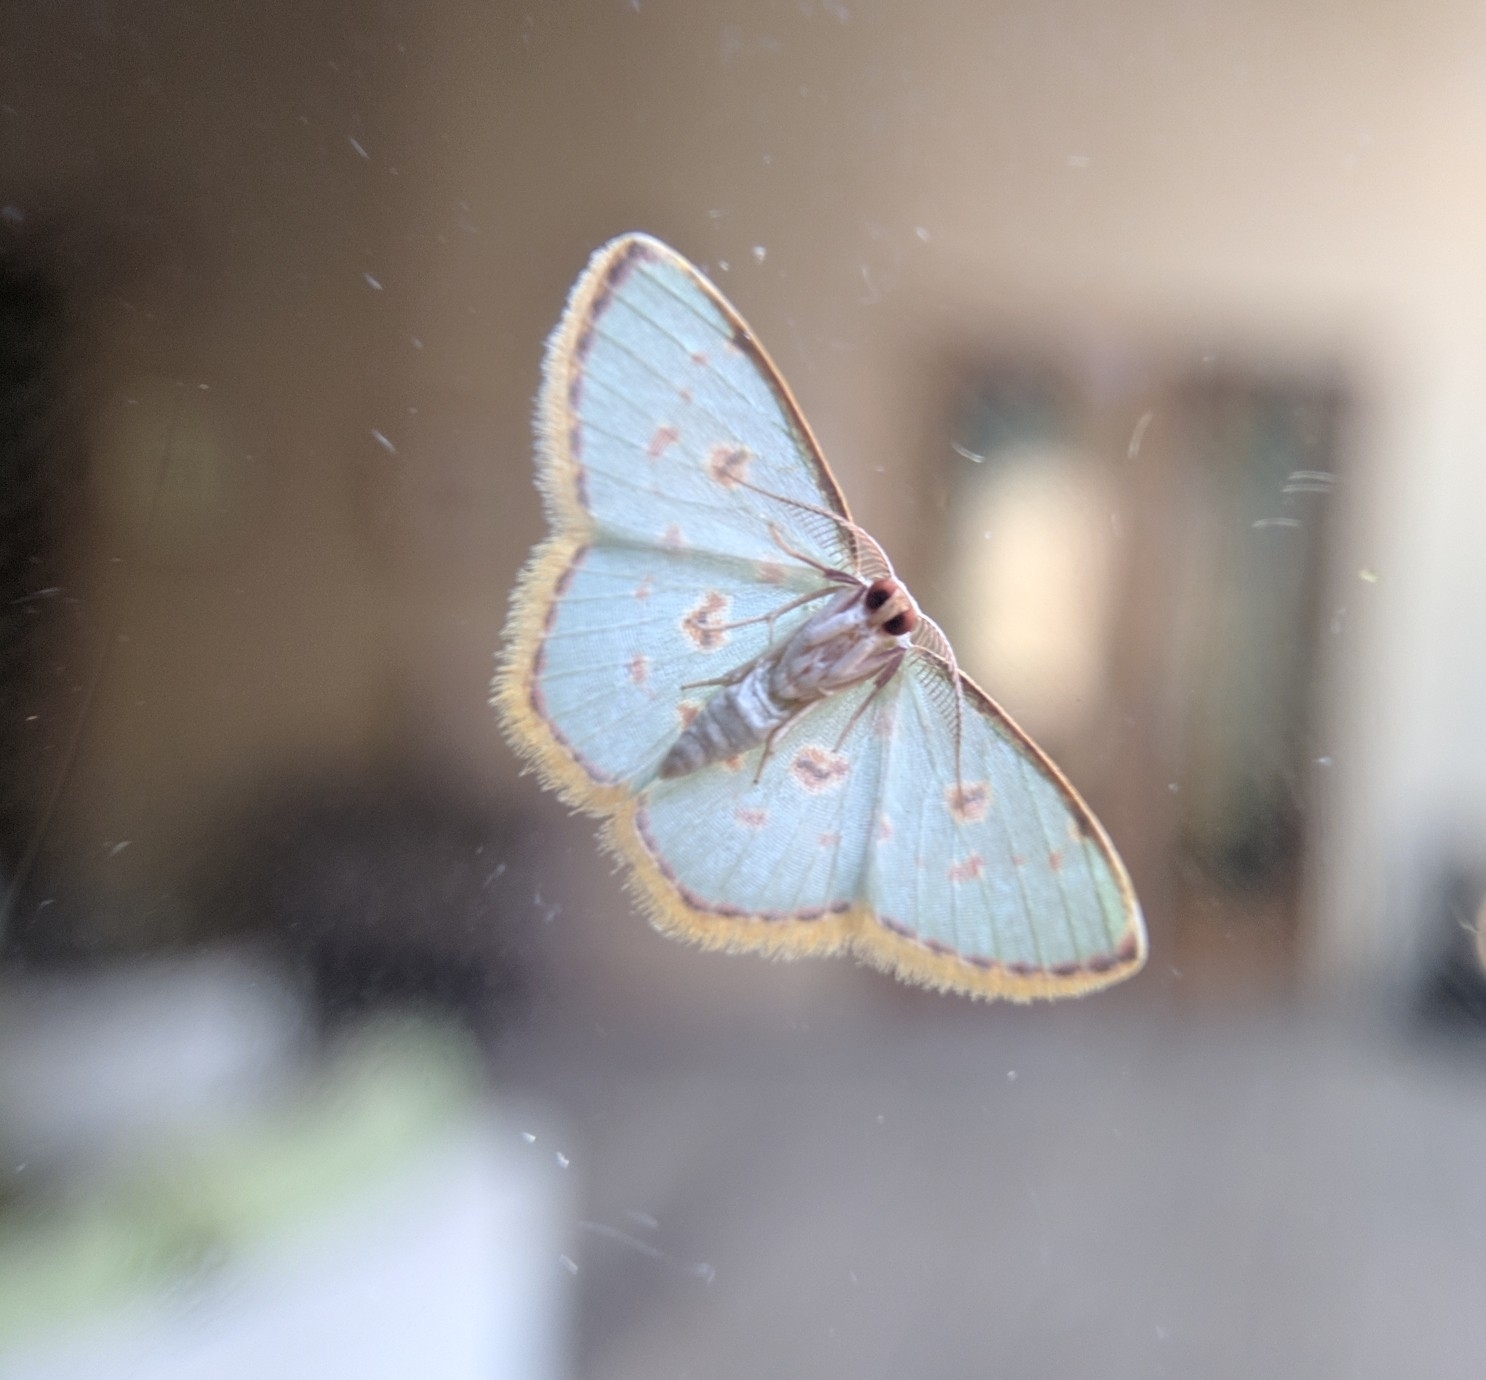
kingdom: Animalia
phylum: Arthropoda
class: Insecta
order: Lepidoptera
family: Geometridae
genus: Comostola
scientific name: Comostola laesaria
